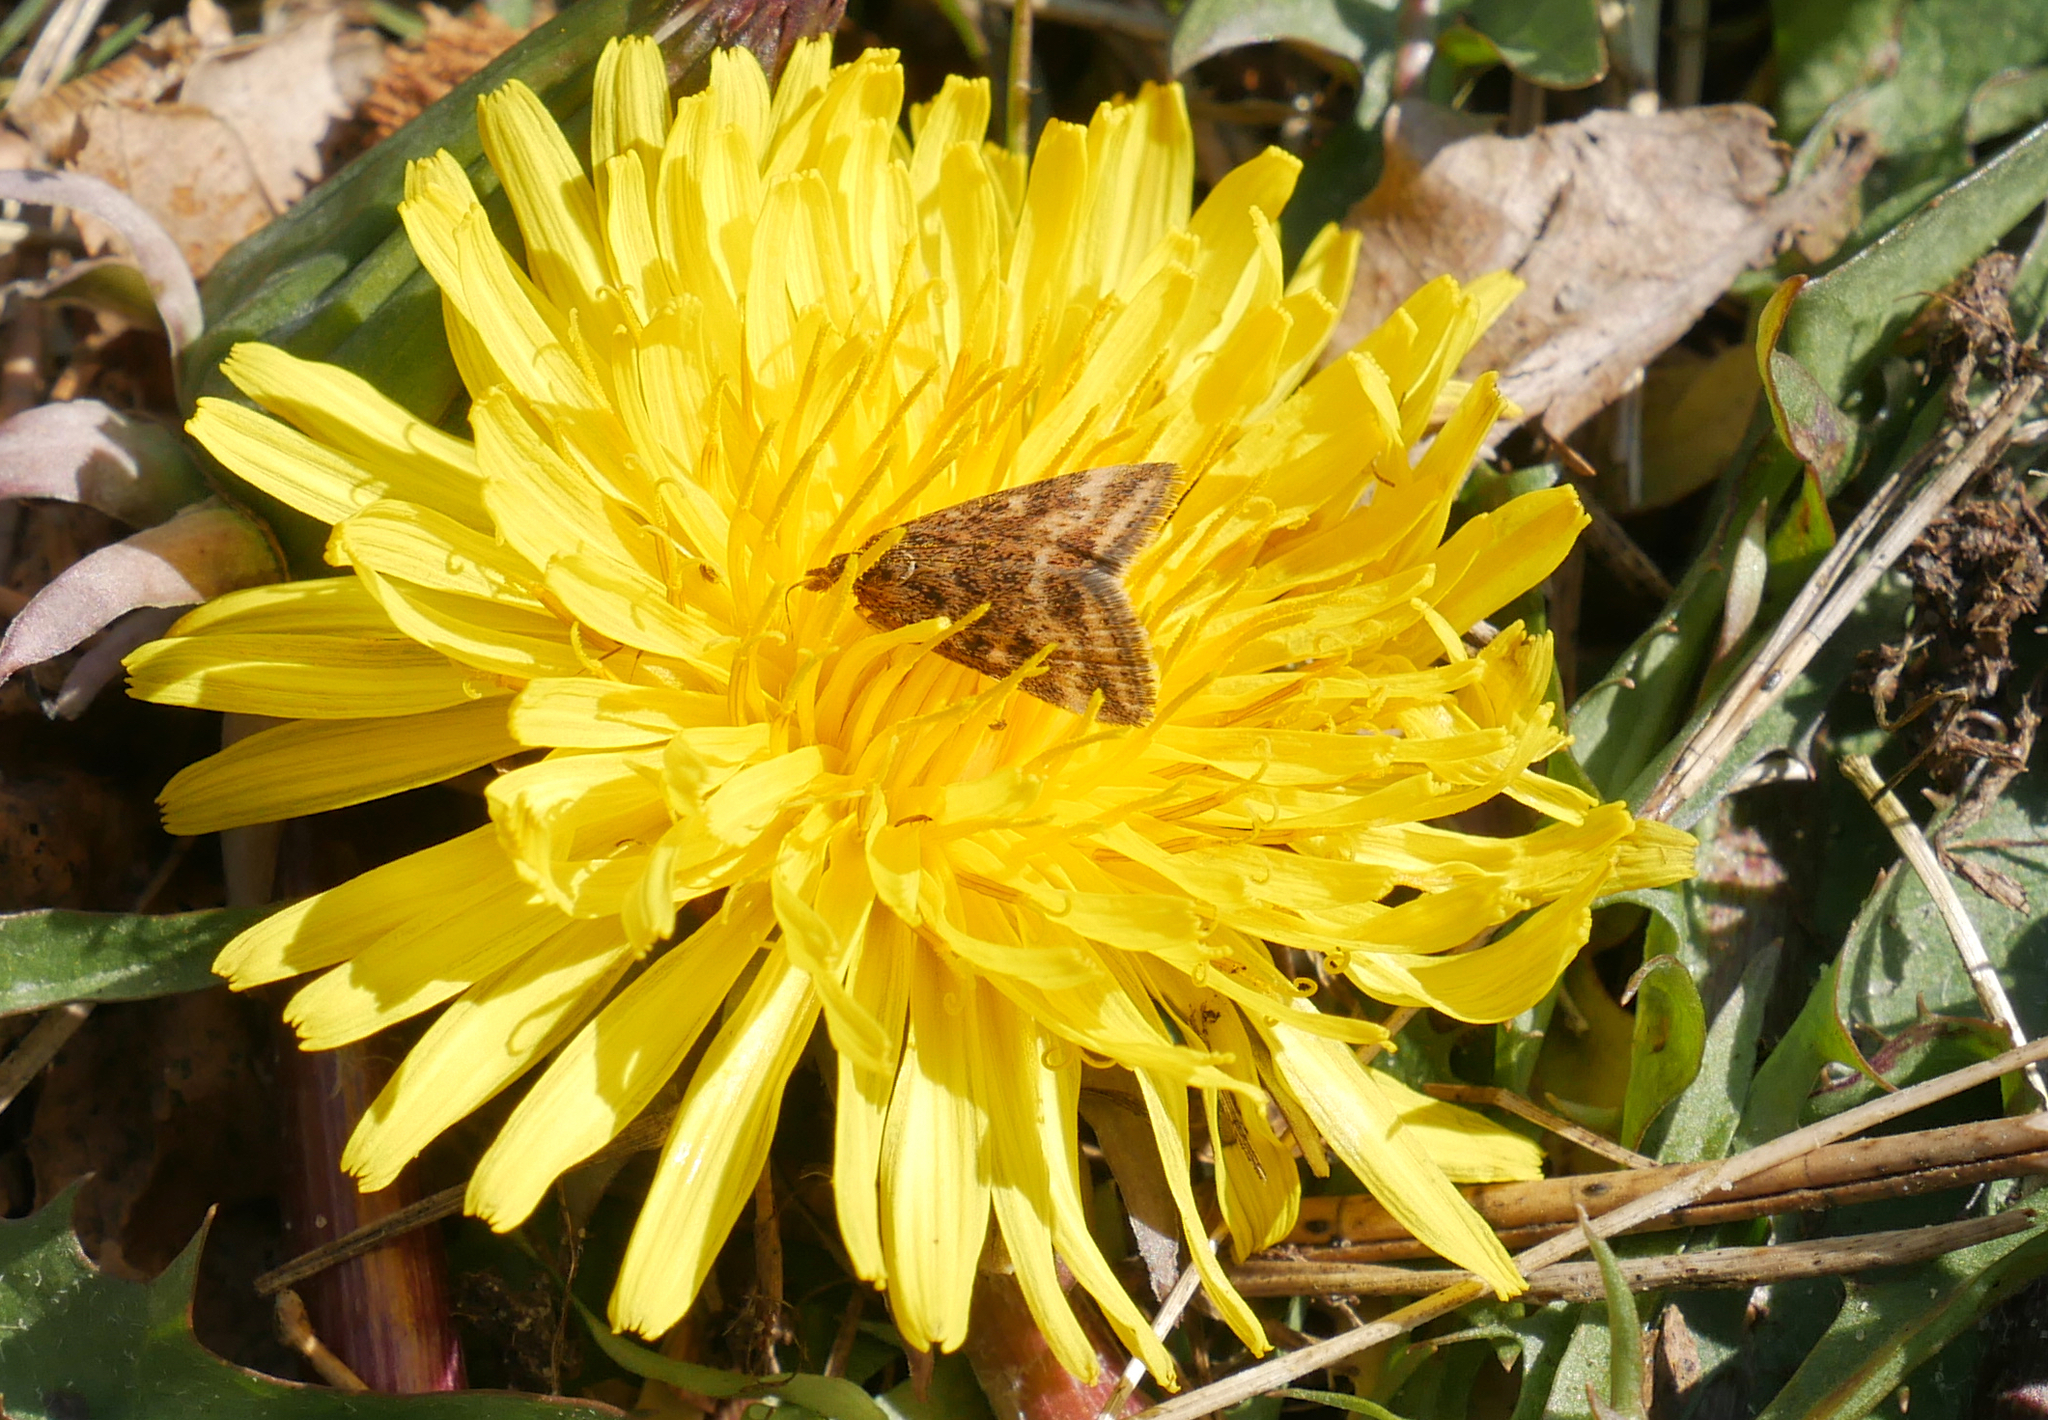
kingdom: Animalia
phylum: Arthropoda
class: Insecta
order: Lepidoptera
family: Crambidae
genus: Pyrausta
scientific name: Pyrausta despicata
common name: Straw-barred pearl
